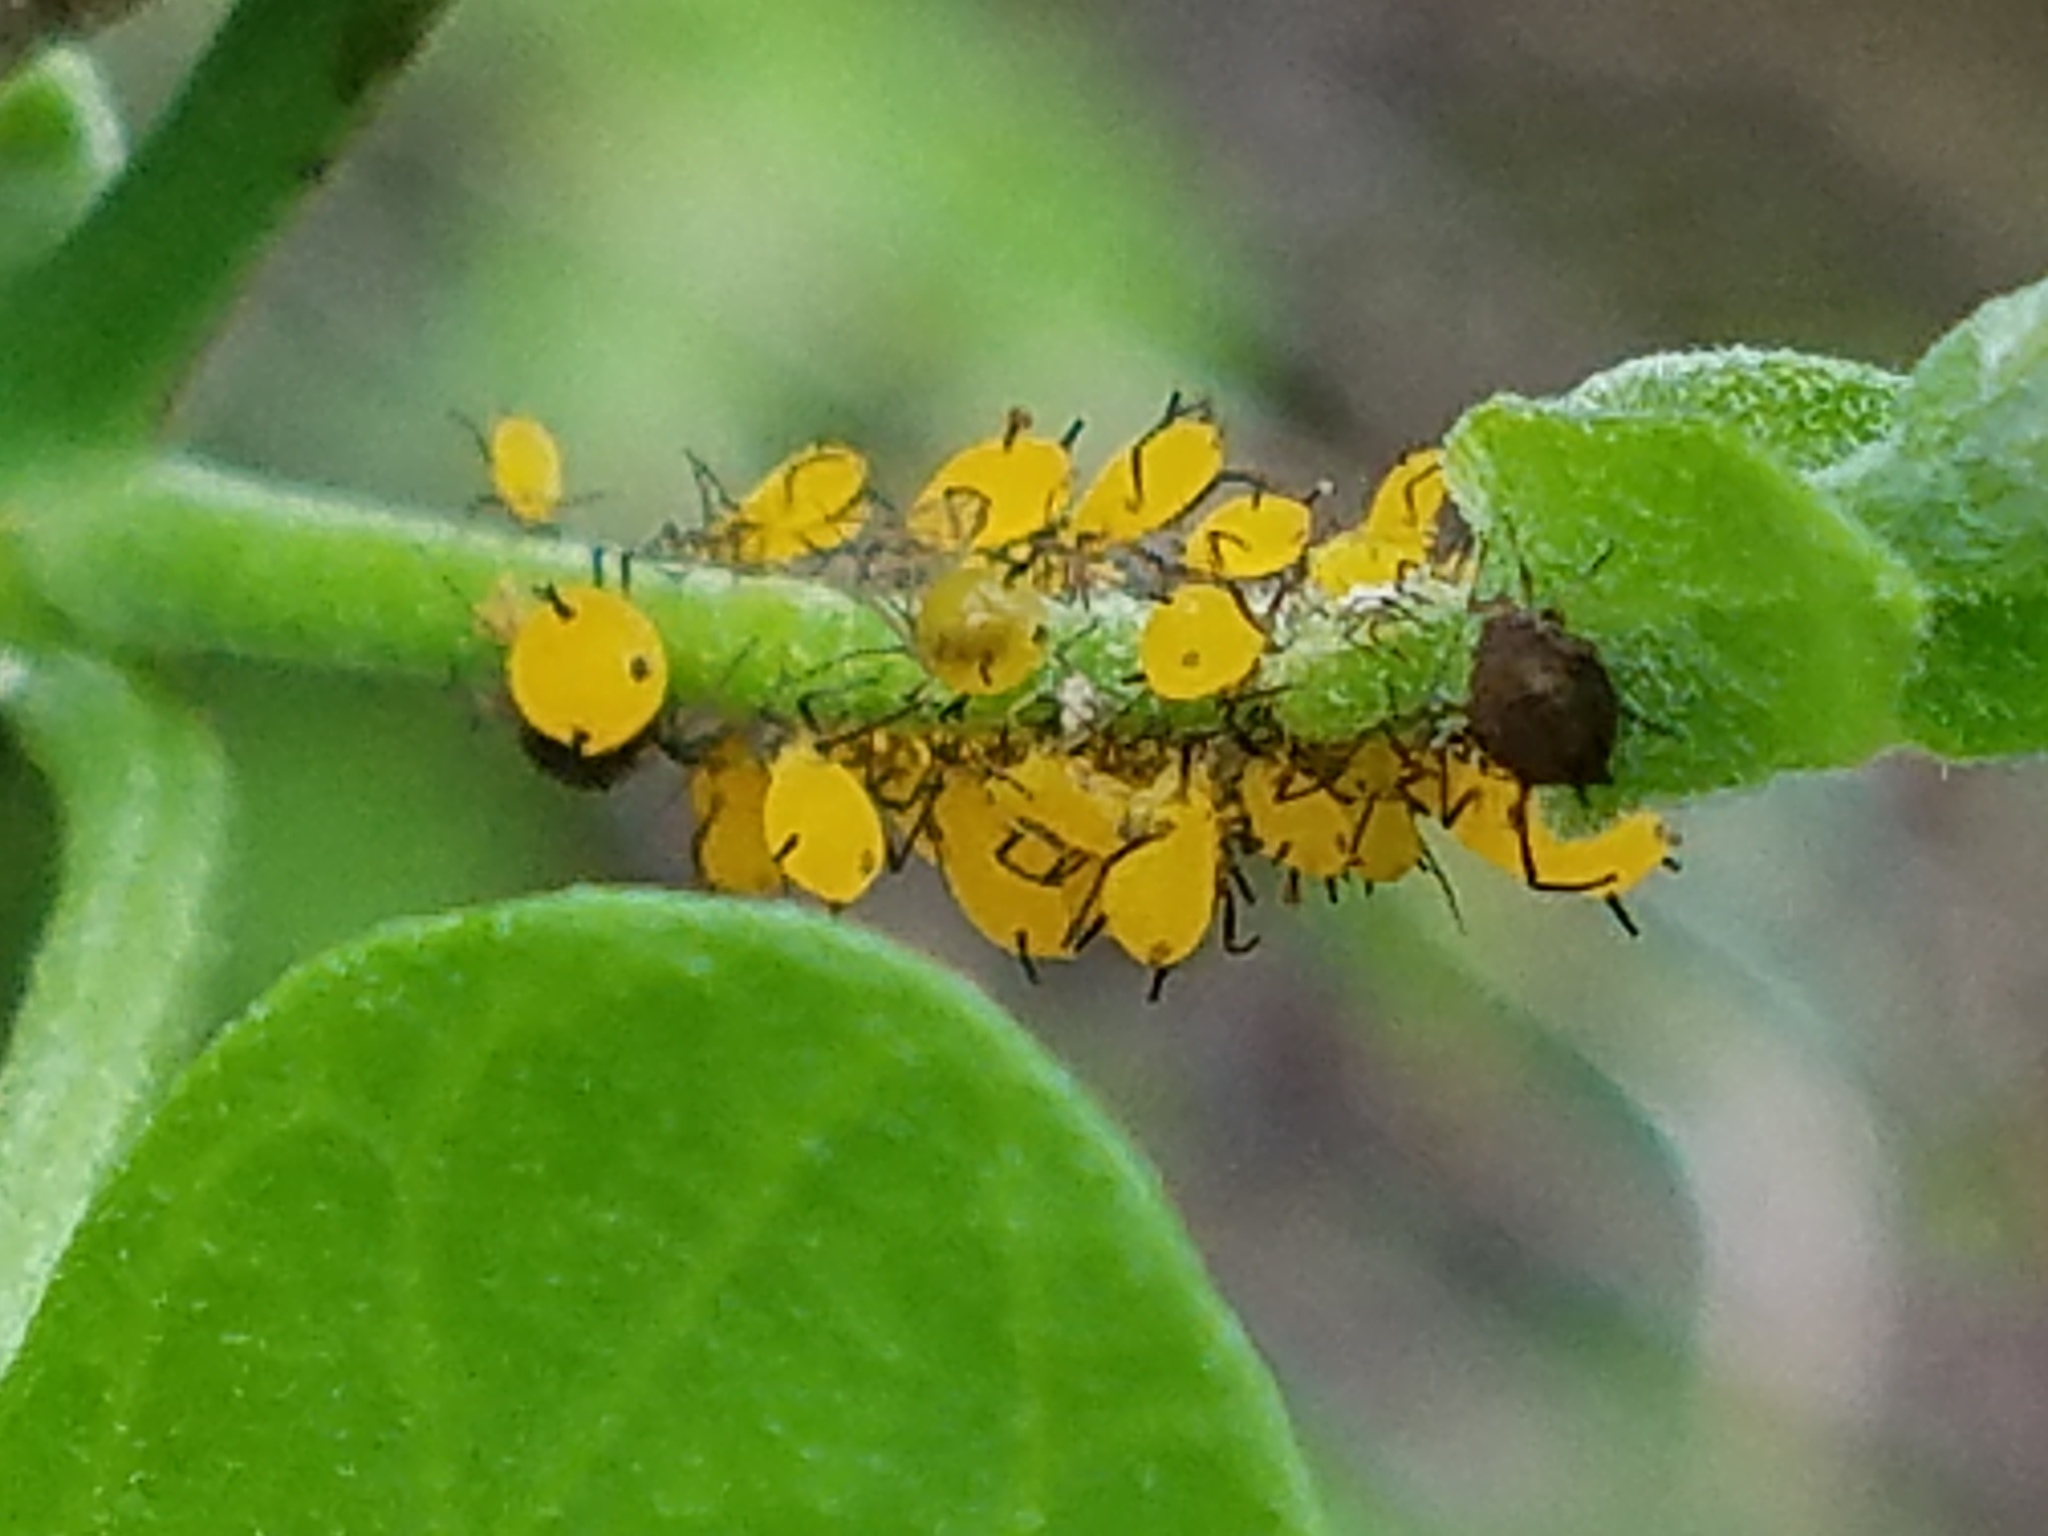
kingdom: Animalia
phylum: Arthropoda
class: Insecta
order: Hemiptera
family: Aphididae
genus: Aphis
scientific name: Aphis nerii
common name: Oleander aphid
